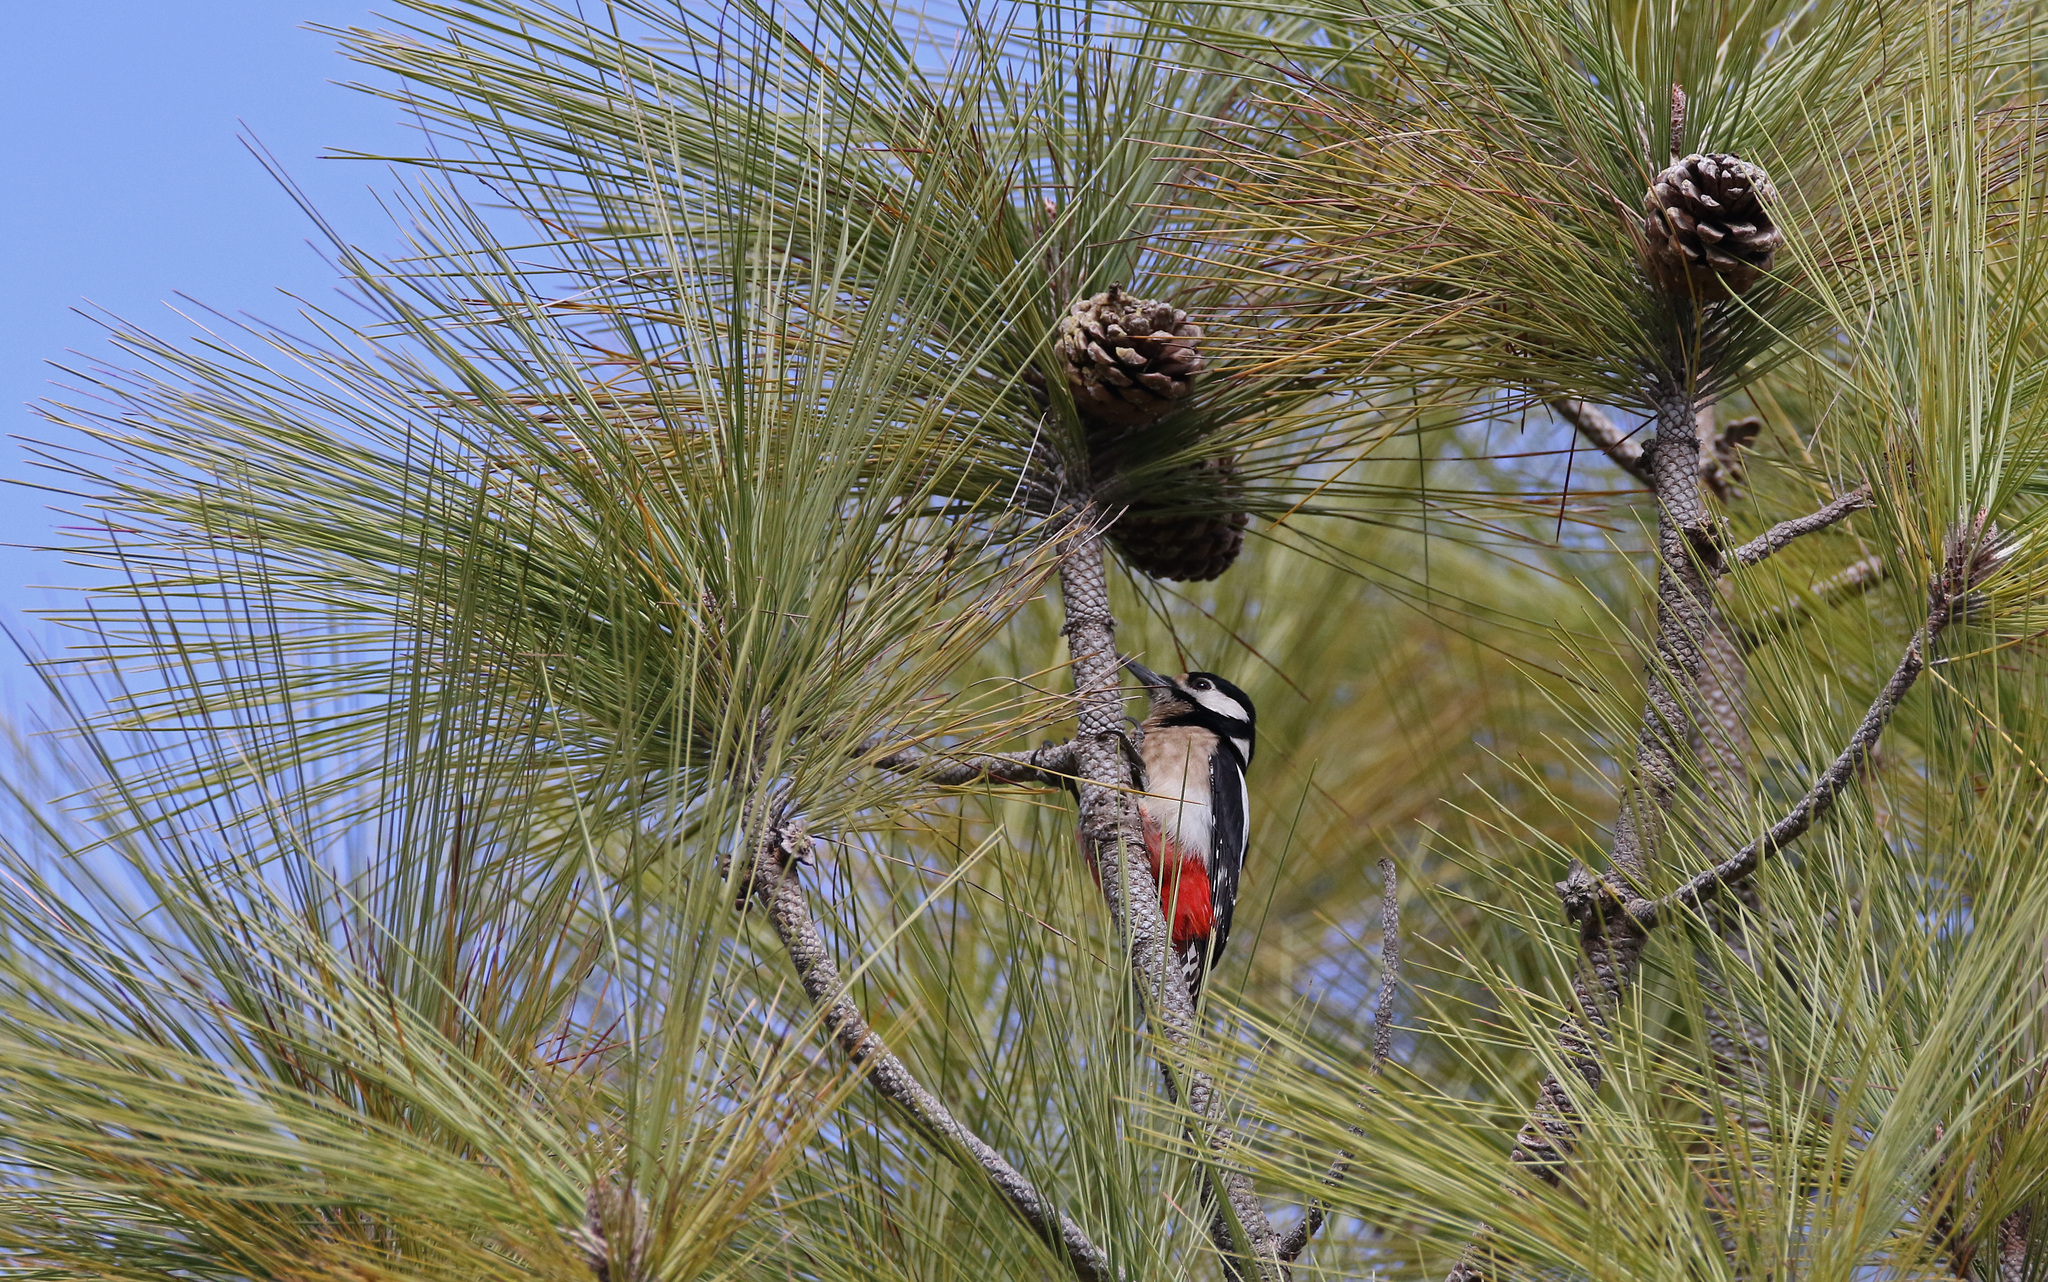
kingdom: Animalia
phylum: Chordata
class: Aves
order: Piciformes
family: Picidae
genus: Dendrocopos
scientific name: Dendrocopos major
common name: Great spotted woodpecker
